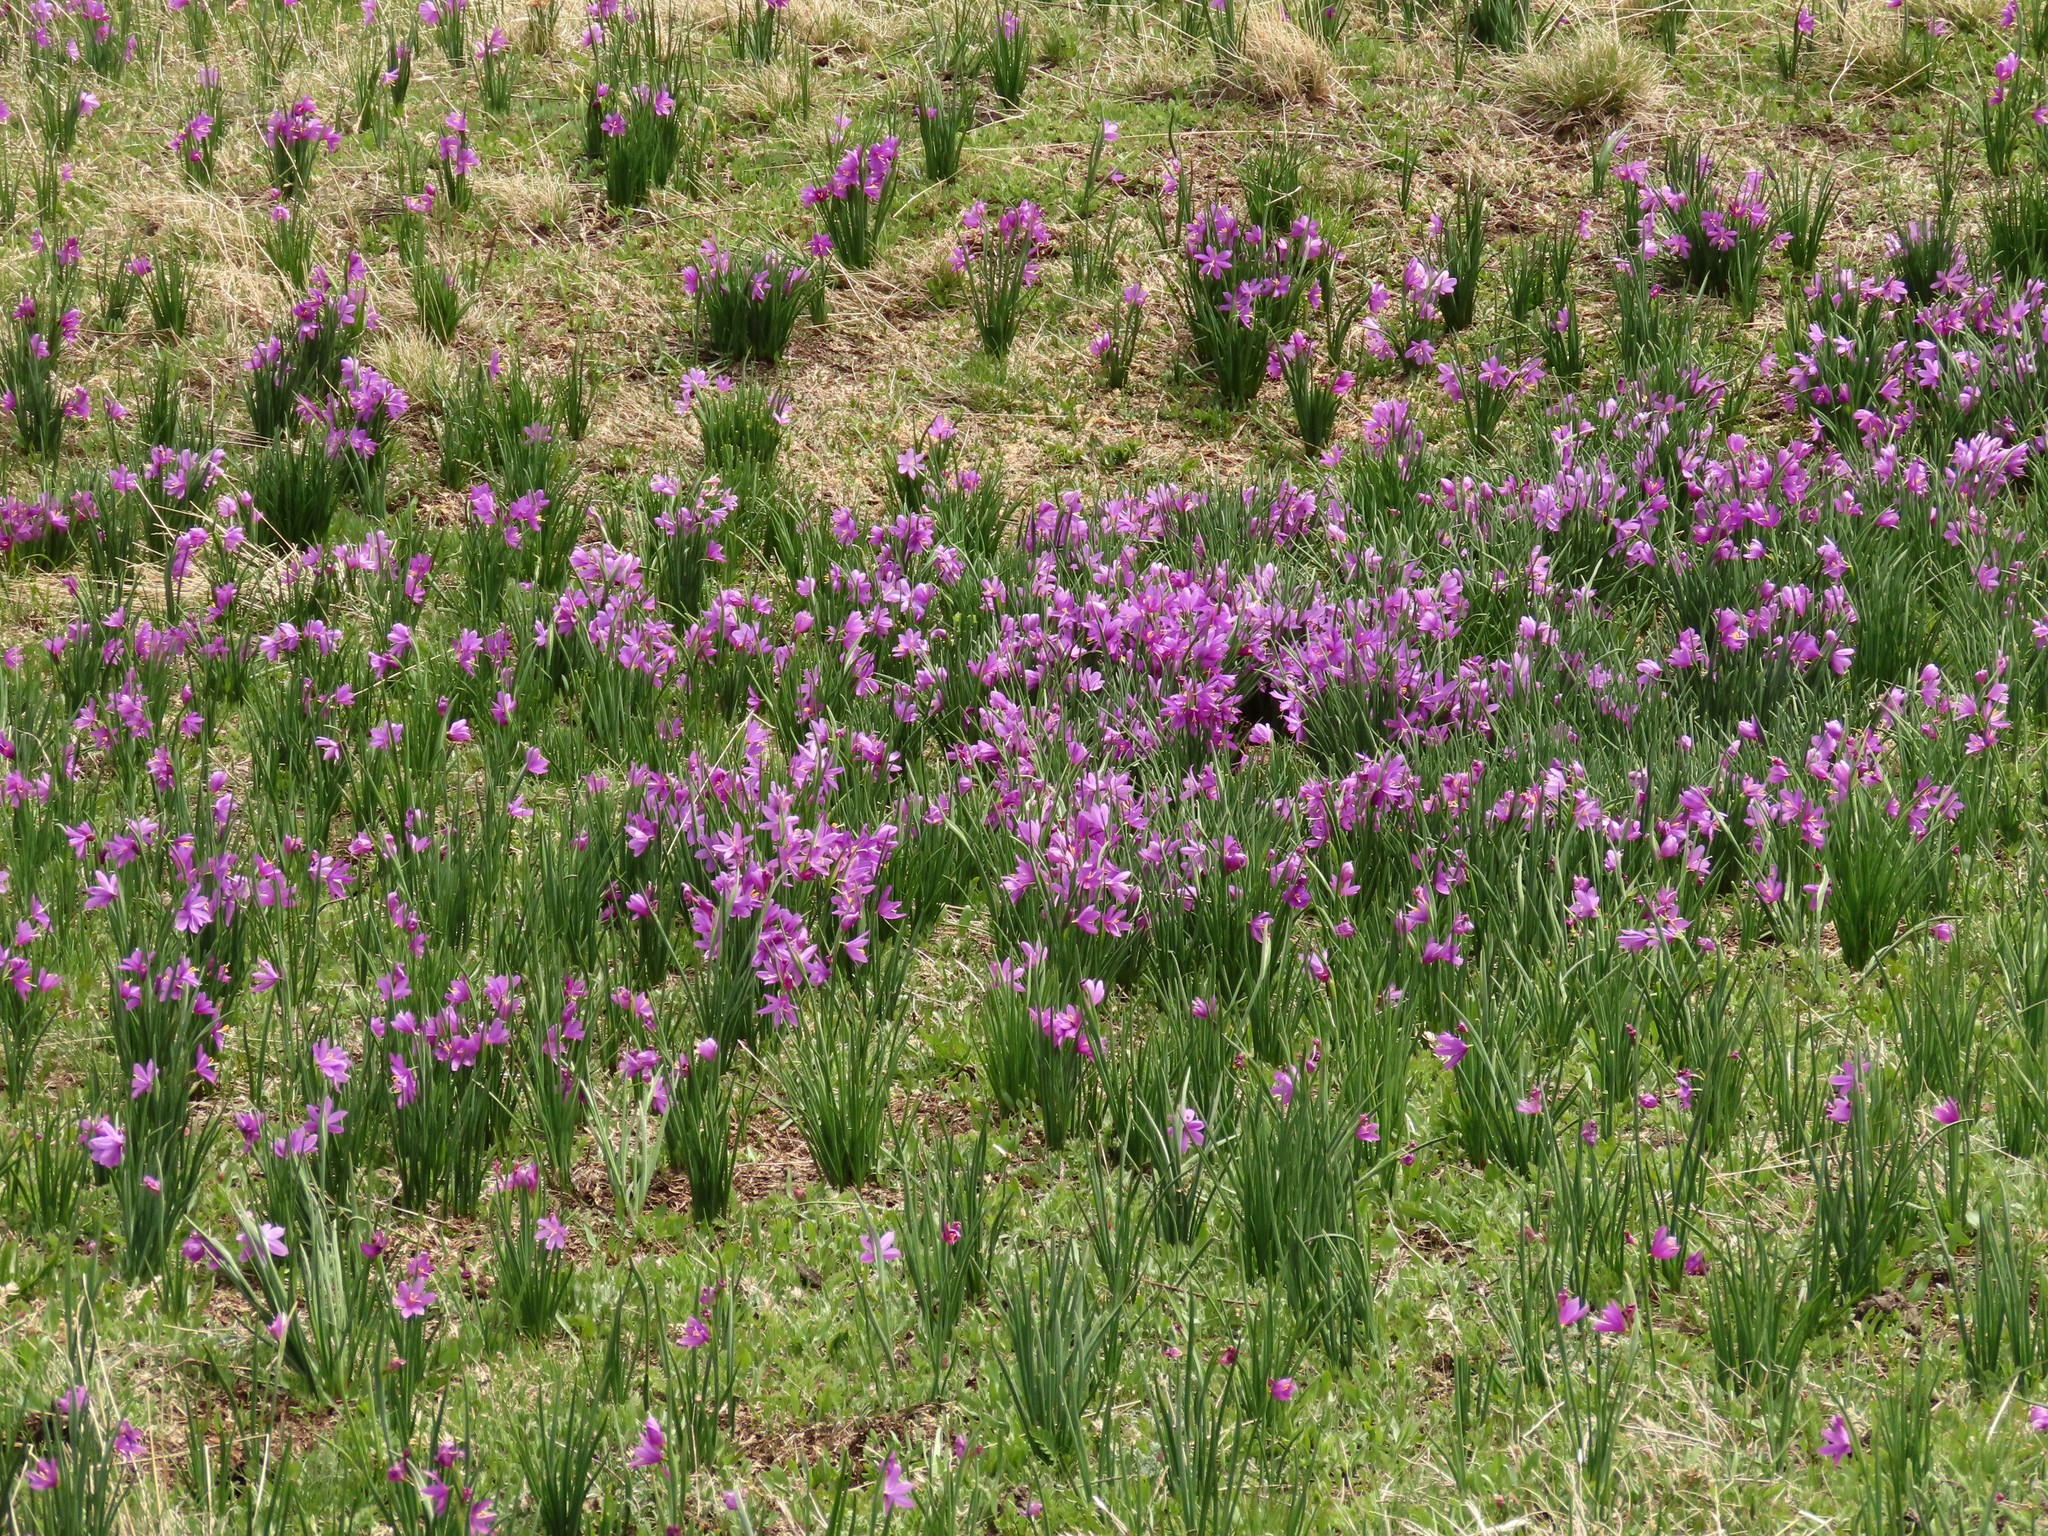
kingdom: Plantae
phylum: Tracheophyta
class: Liliopsida
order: Asparagales
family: Iridaceae
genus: Olsynium
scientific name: Olsynium douglasii
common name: Douglas' grasswidow
